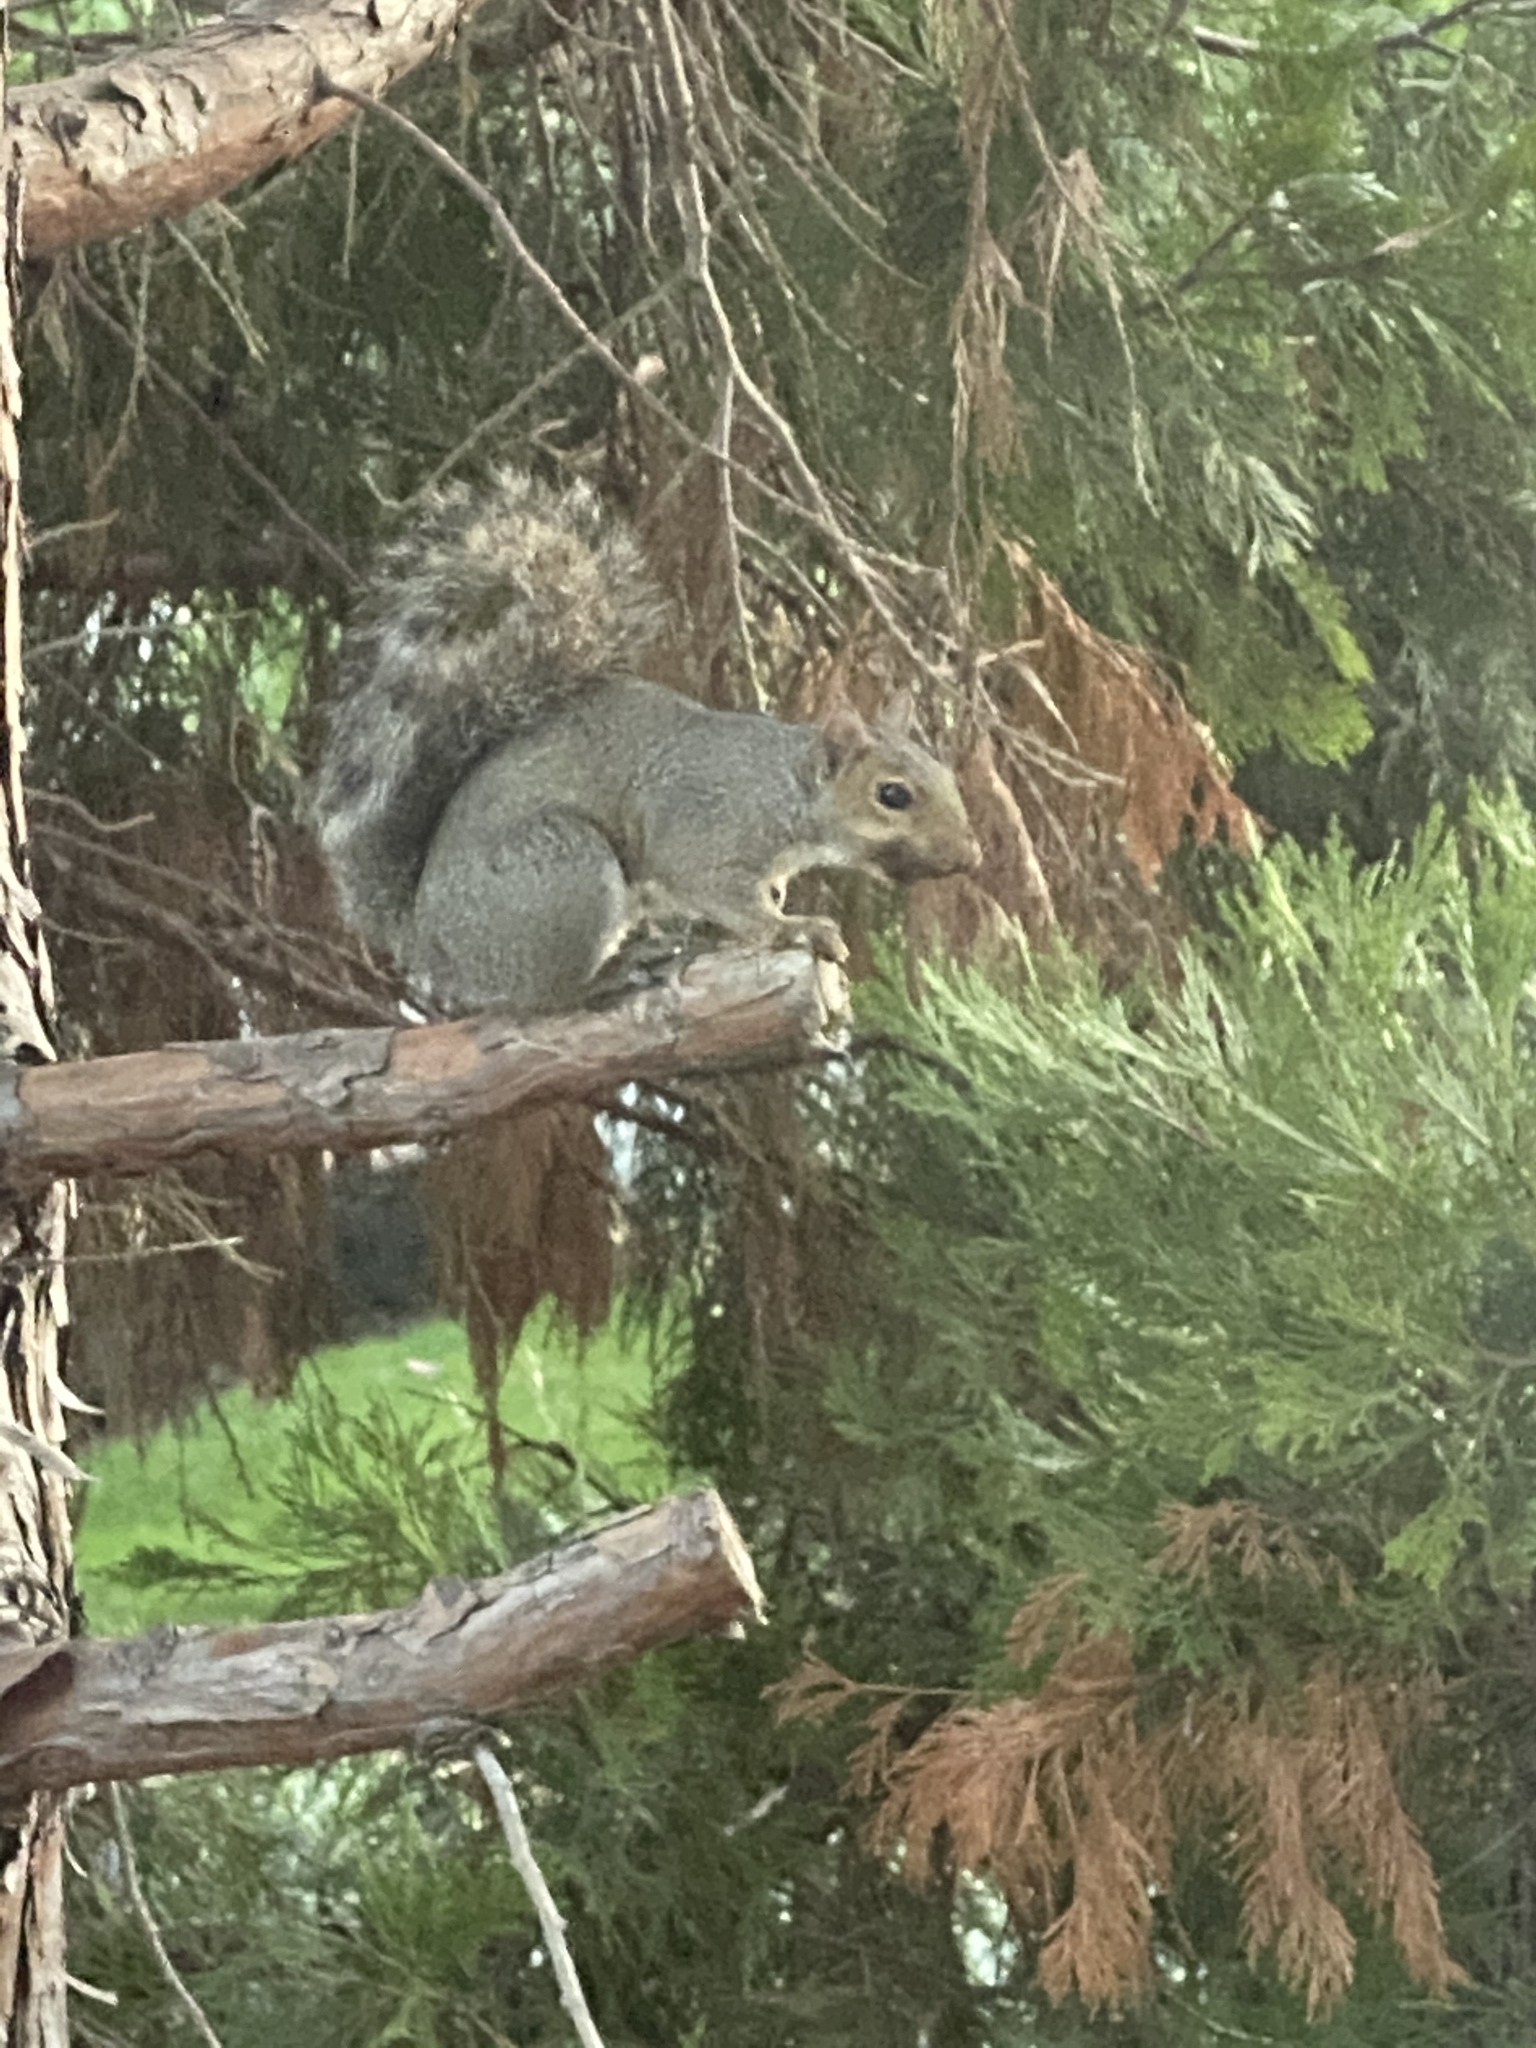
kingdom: Animalia
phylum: Chordata
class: Mammalia
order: Rodentia
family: Sciuridae
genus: Sciurus
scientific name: Sciurus carolinensis
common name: Eastern gray squirrel
